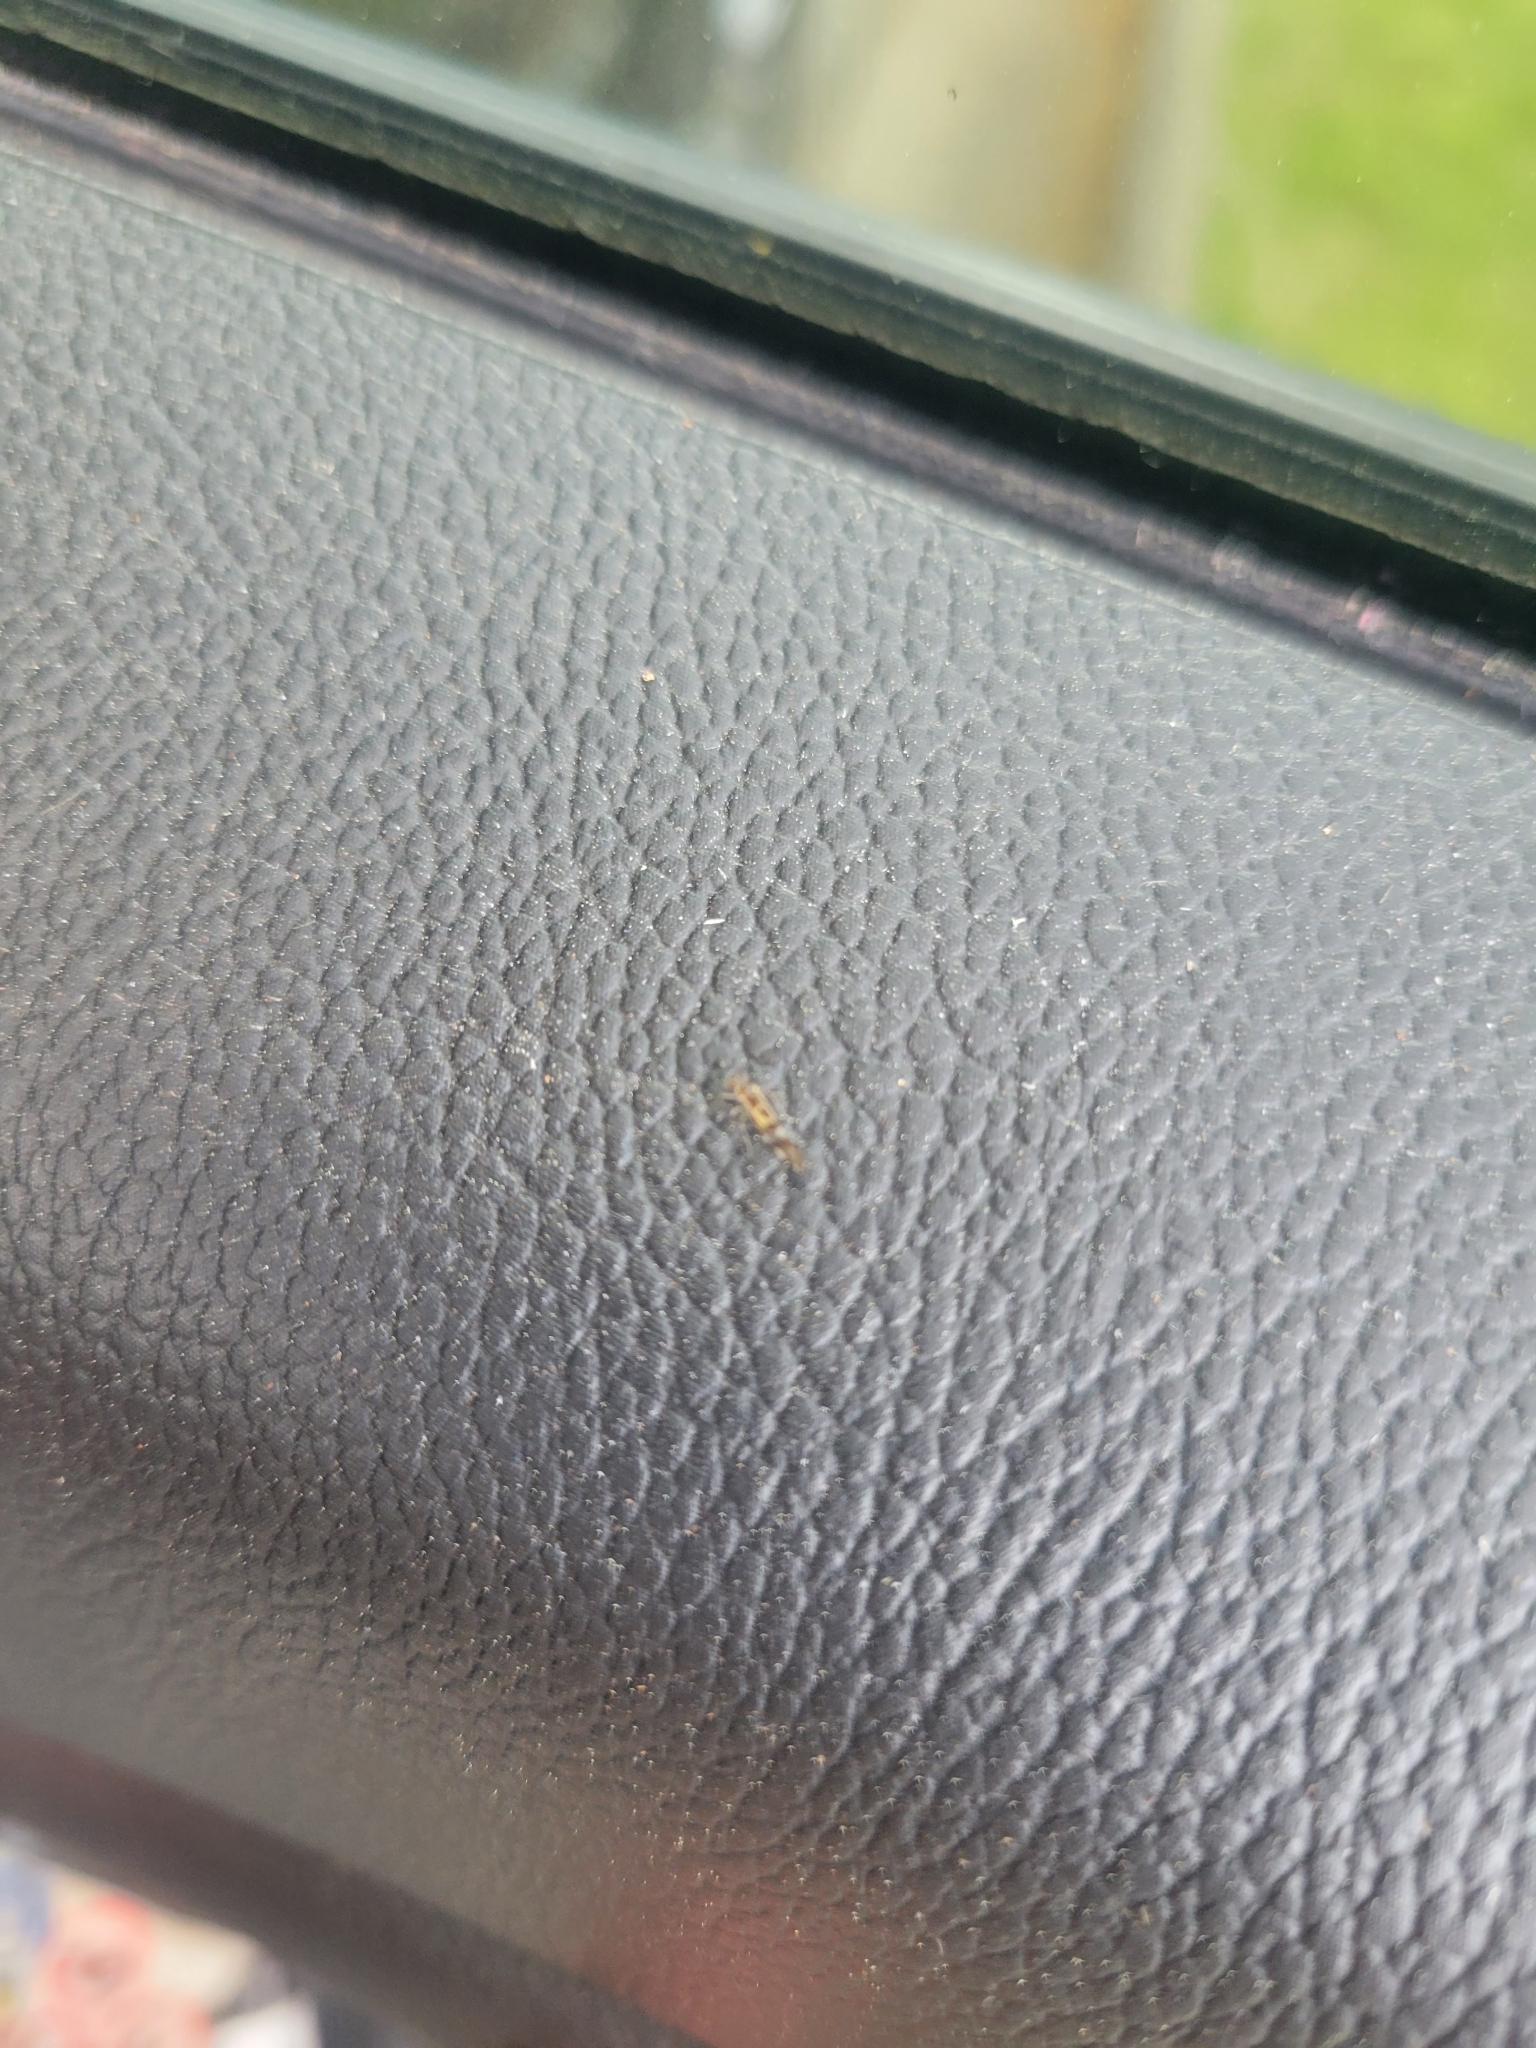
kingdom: Animalia
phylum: Arthropoda
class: Insecta
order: Psocodea
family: Stenopsocidae
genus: Graphopsocus
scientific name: Graphopsocus cruciatus
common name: Lizard bark louse
